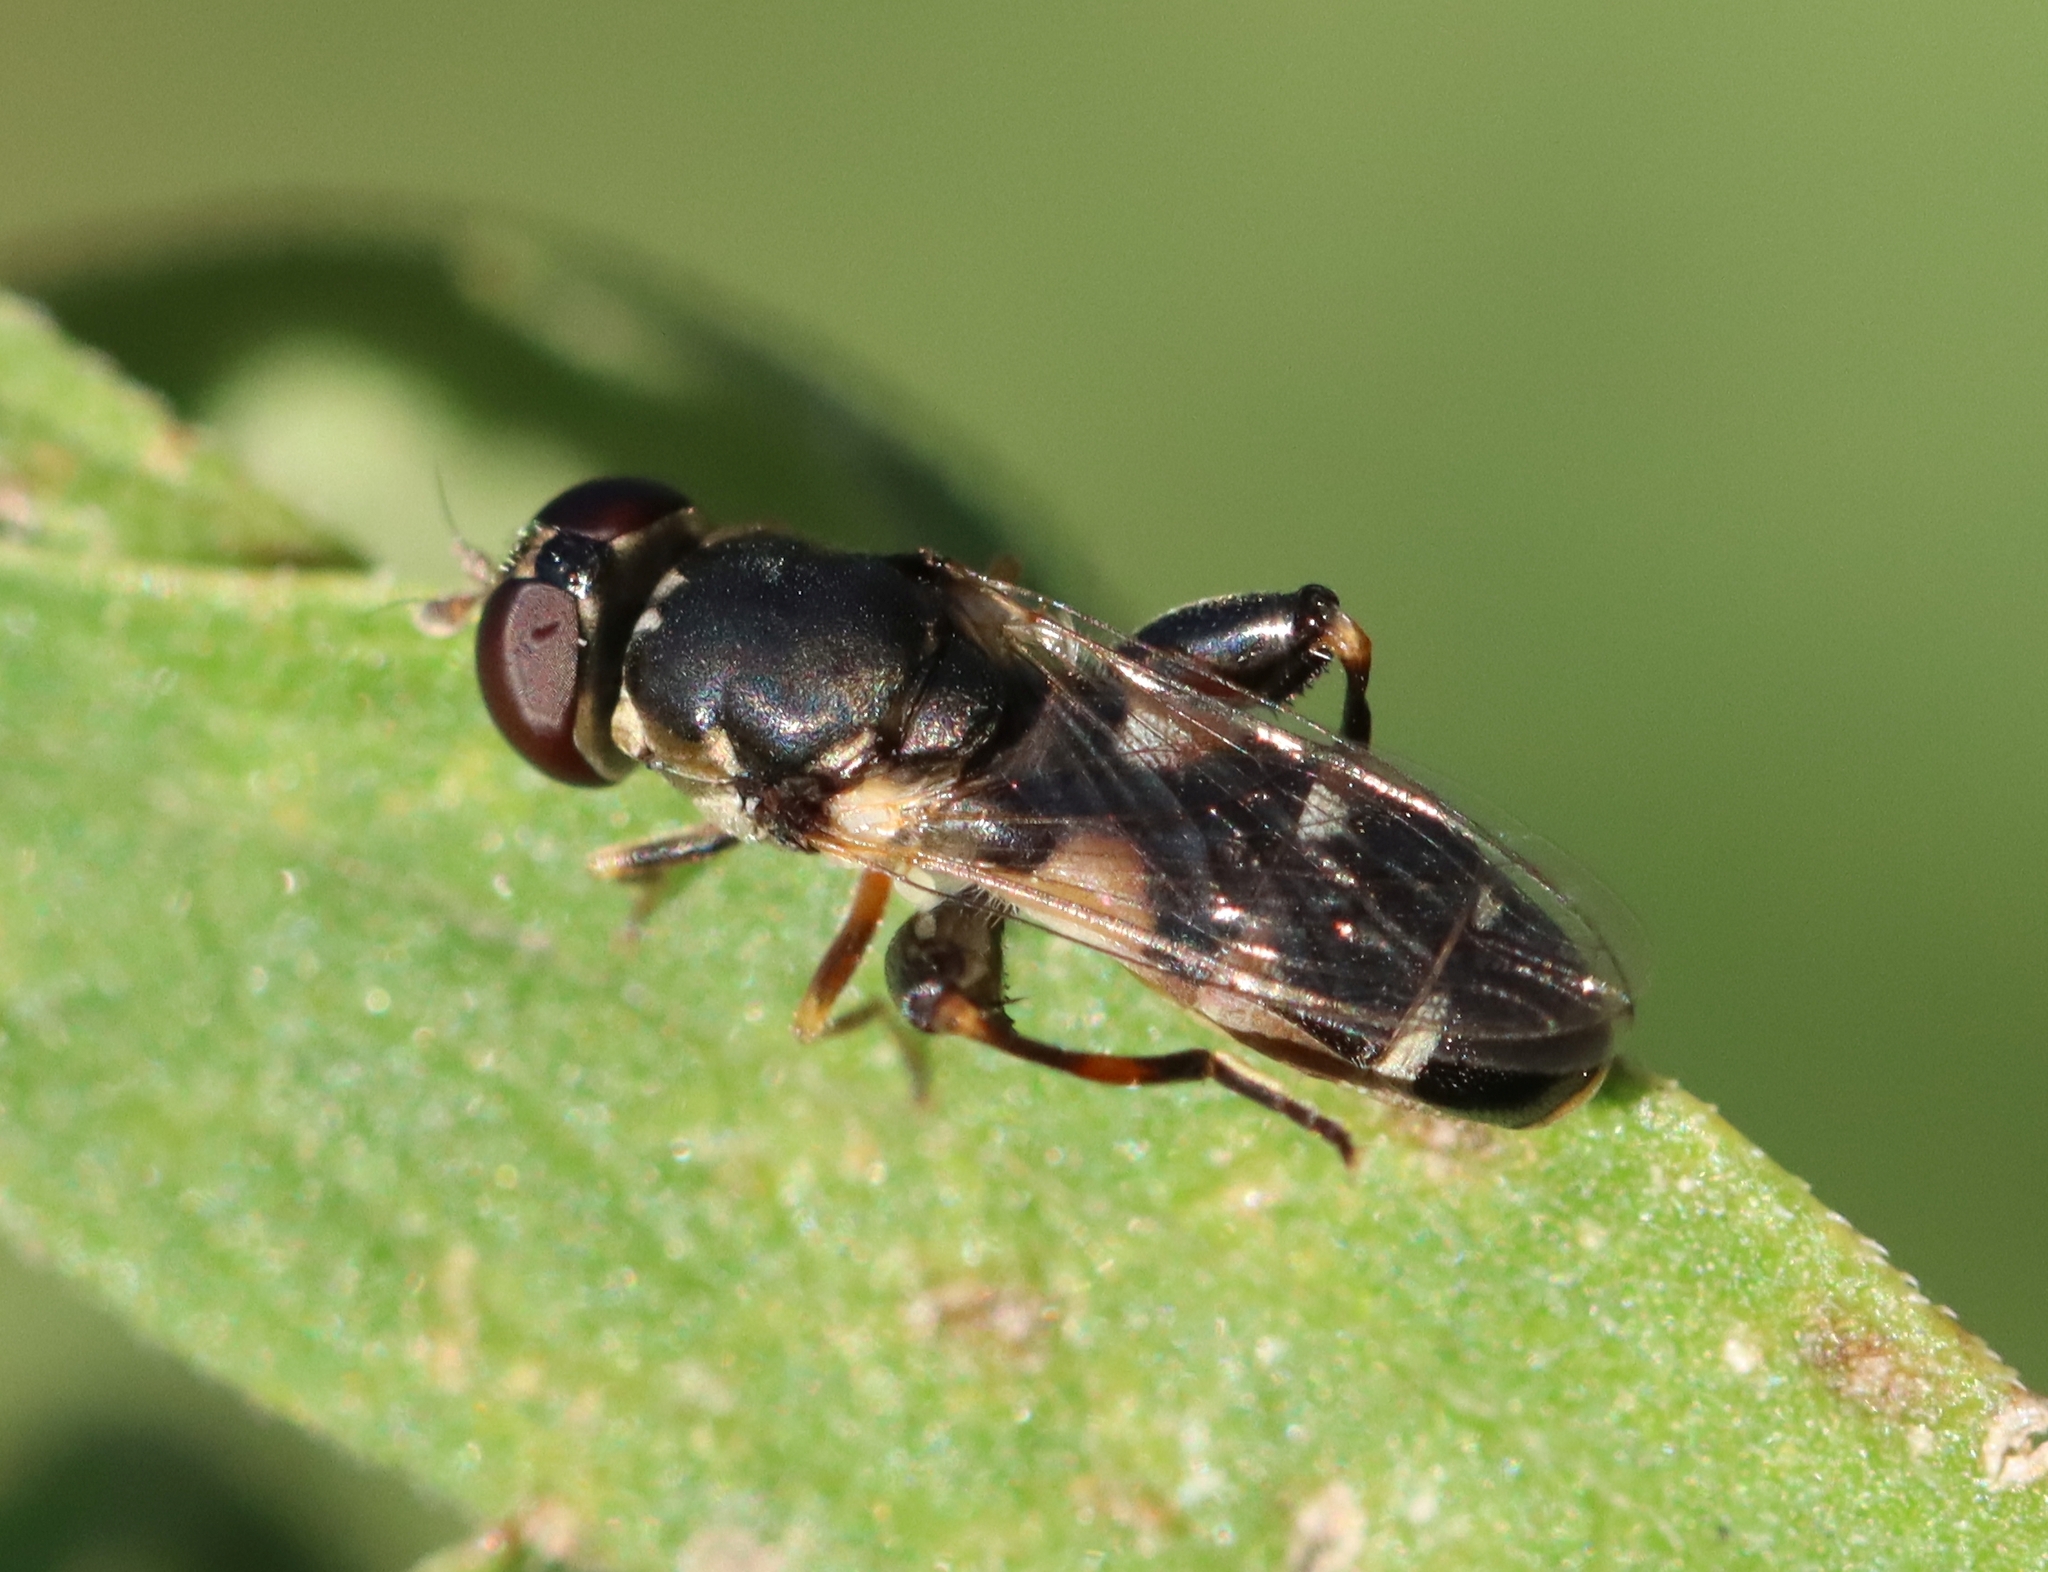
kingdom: Animalia
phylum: Arthropoda
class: Insecta
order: Diptera
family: Syrphidae
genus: Syritta
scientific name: Syritta pipiens
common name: Hover fly
